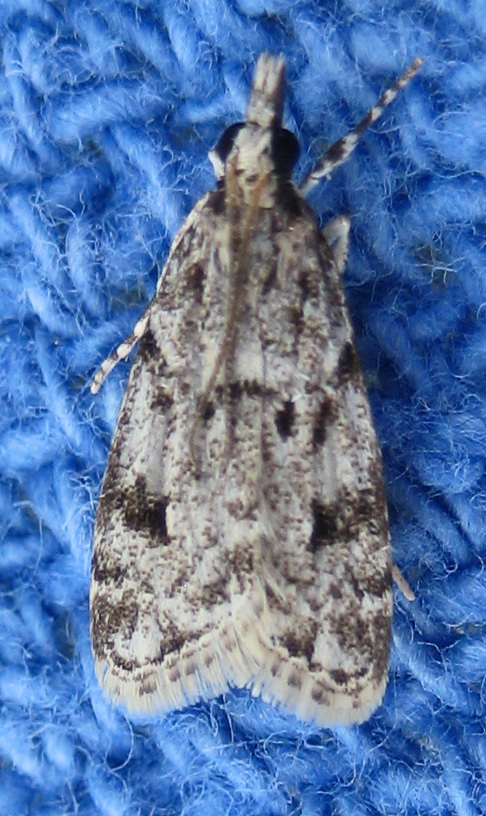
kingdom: Animalia
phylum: Arthropoda
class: Insecta
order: Lepidoptera
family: Crambidae
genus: Eudonia
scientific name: Eudonia heterosalis
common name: Mcdunnough's eudonia
